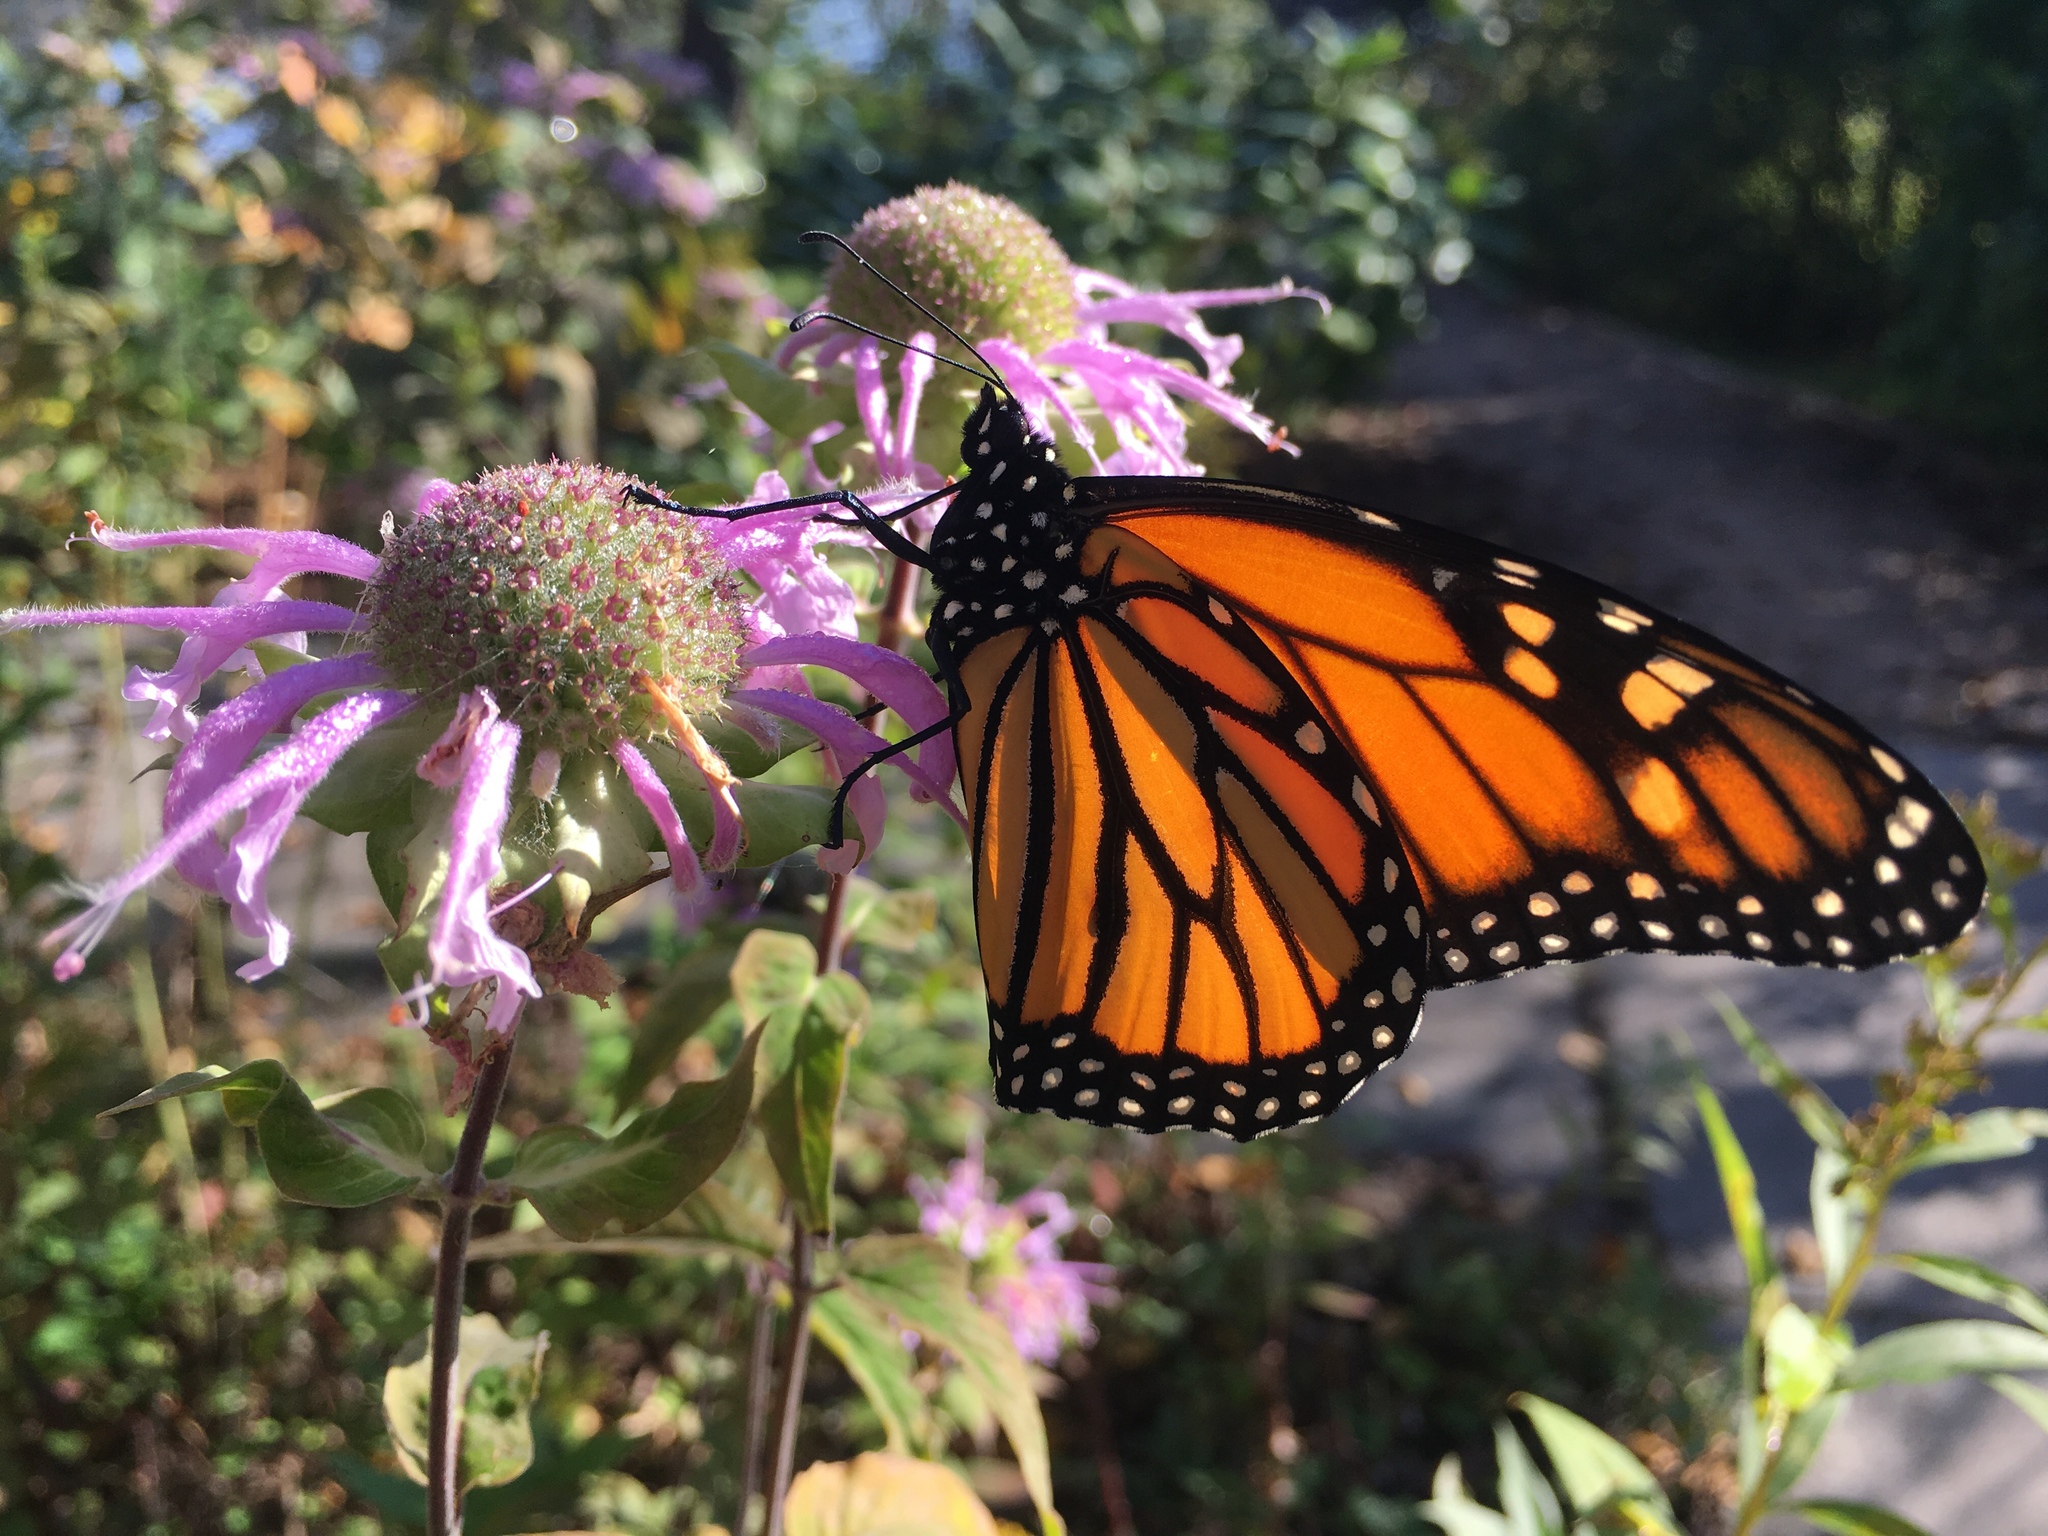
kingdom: Animalia
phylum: Arthropoda
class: Insecta
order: Lepidoptera
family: Nymphalidae
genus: Danaus
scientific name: Danaus plexippus
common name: Monarch
